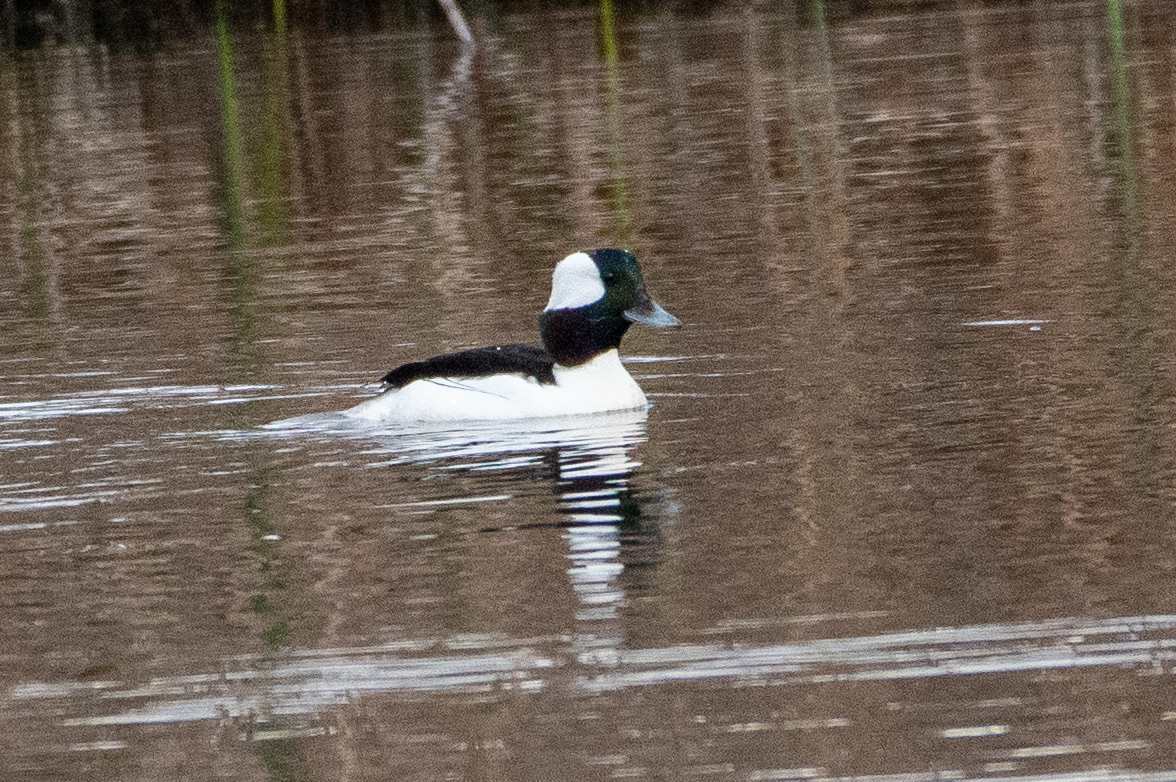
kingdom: Animalia
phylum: Chordata
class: Aves
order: Anseriformes
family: Anatidae
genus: Bucephala
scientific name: Bucephala albeola
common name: Bufflehead
